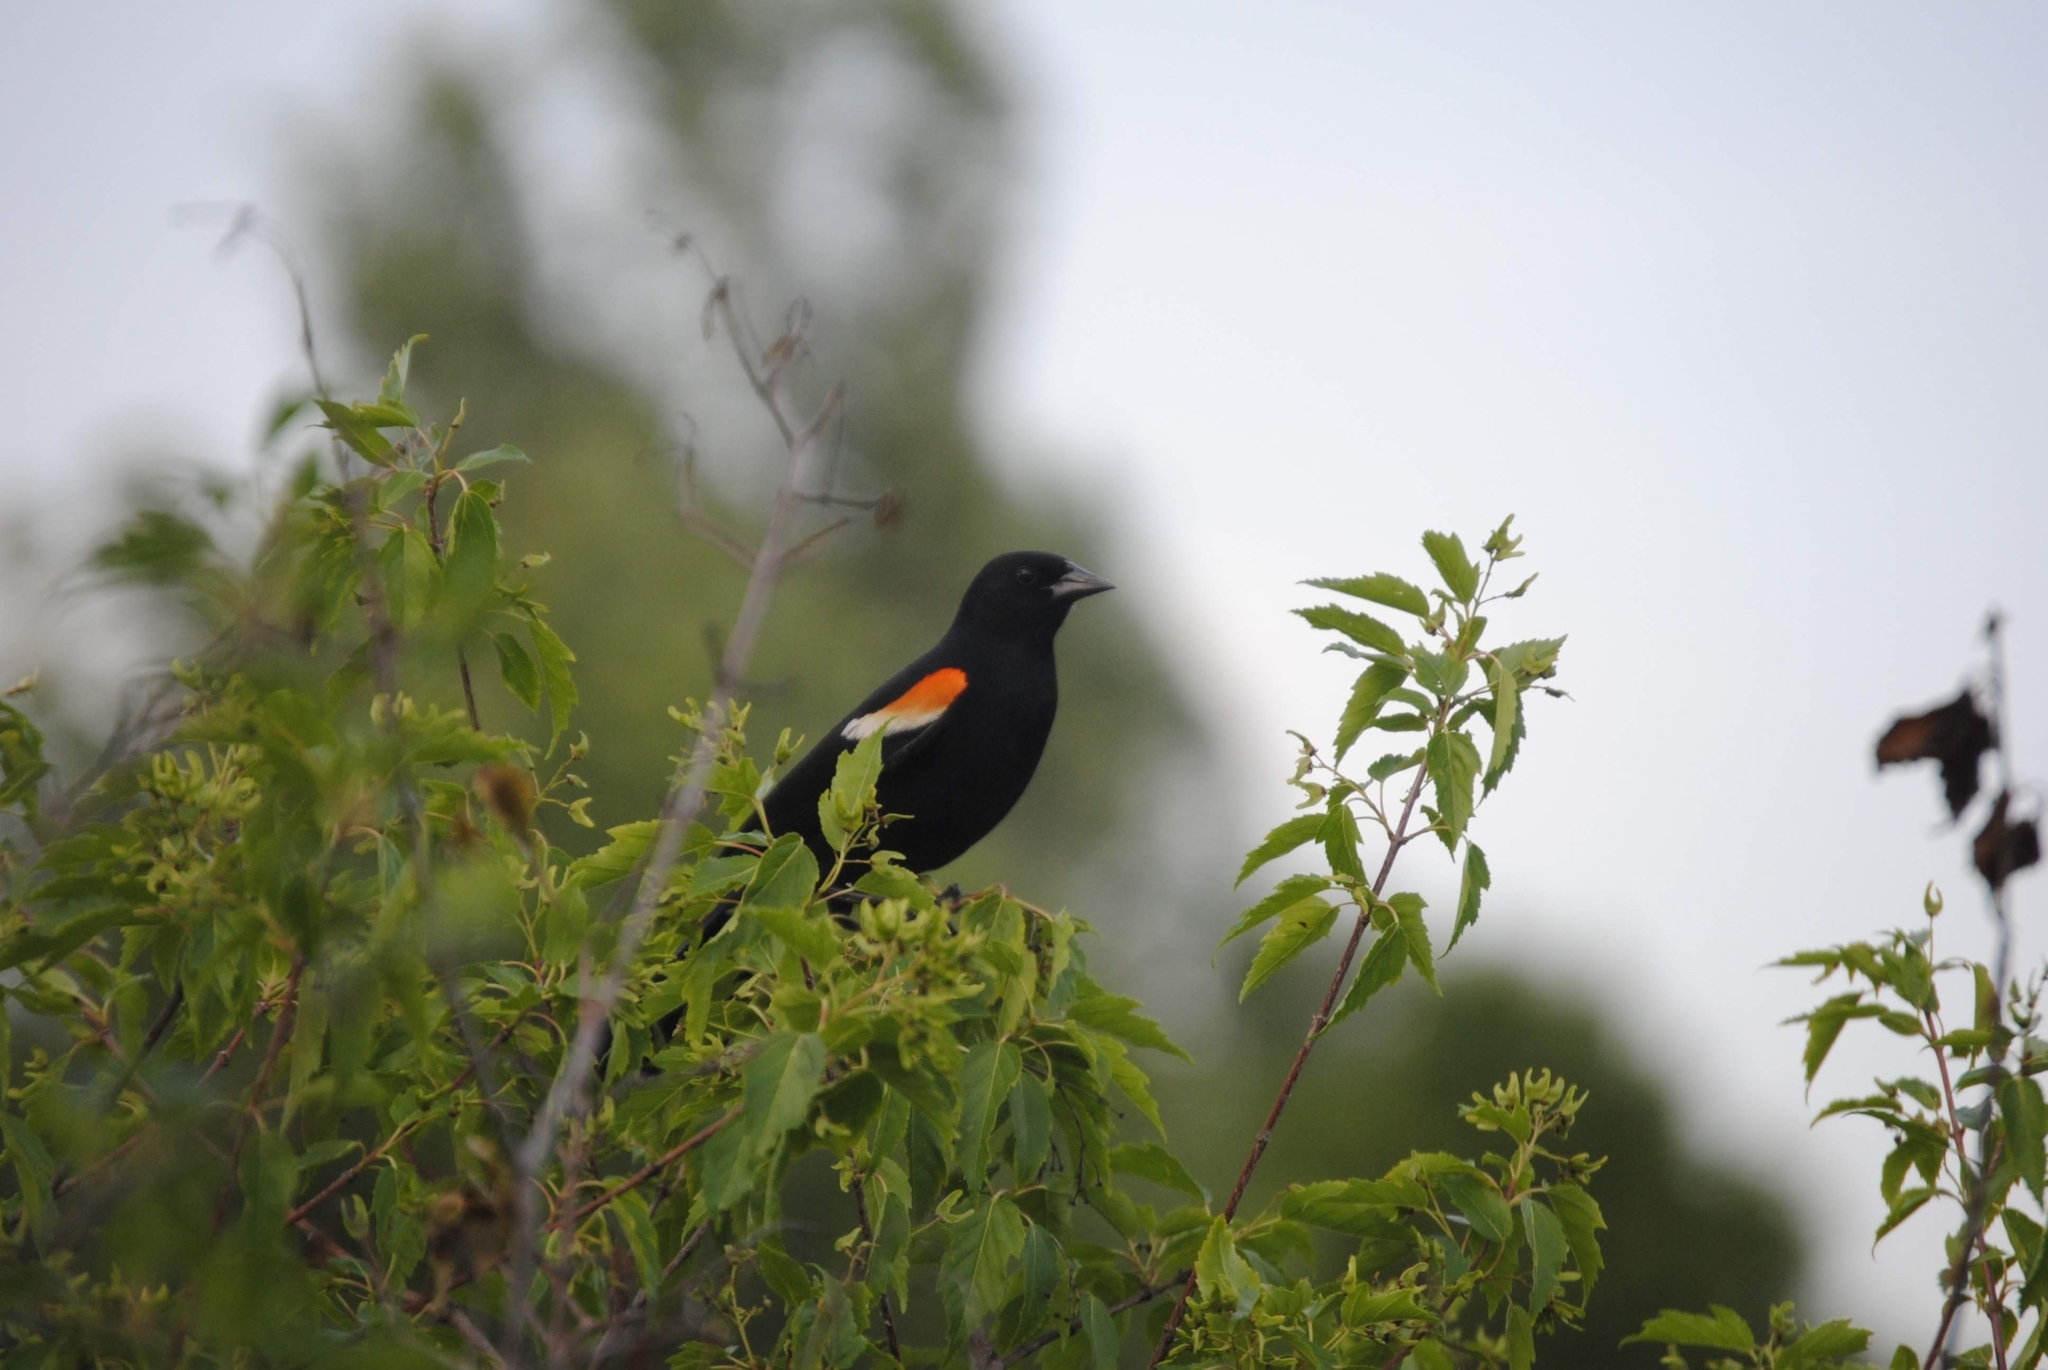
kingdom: Animalia
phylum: Chordata
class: Aves
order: Passeriformes
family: Icteridae
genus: Agelaius
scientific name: Agelaius phoeniceus
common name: Red-winged blackbird
